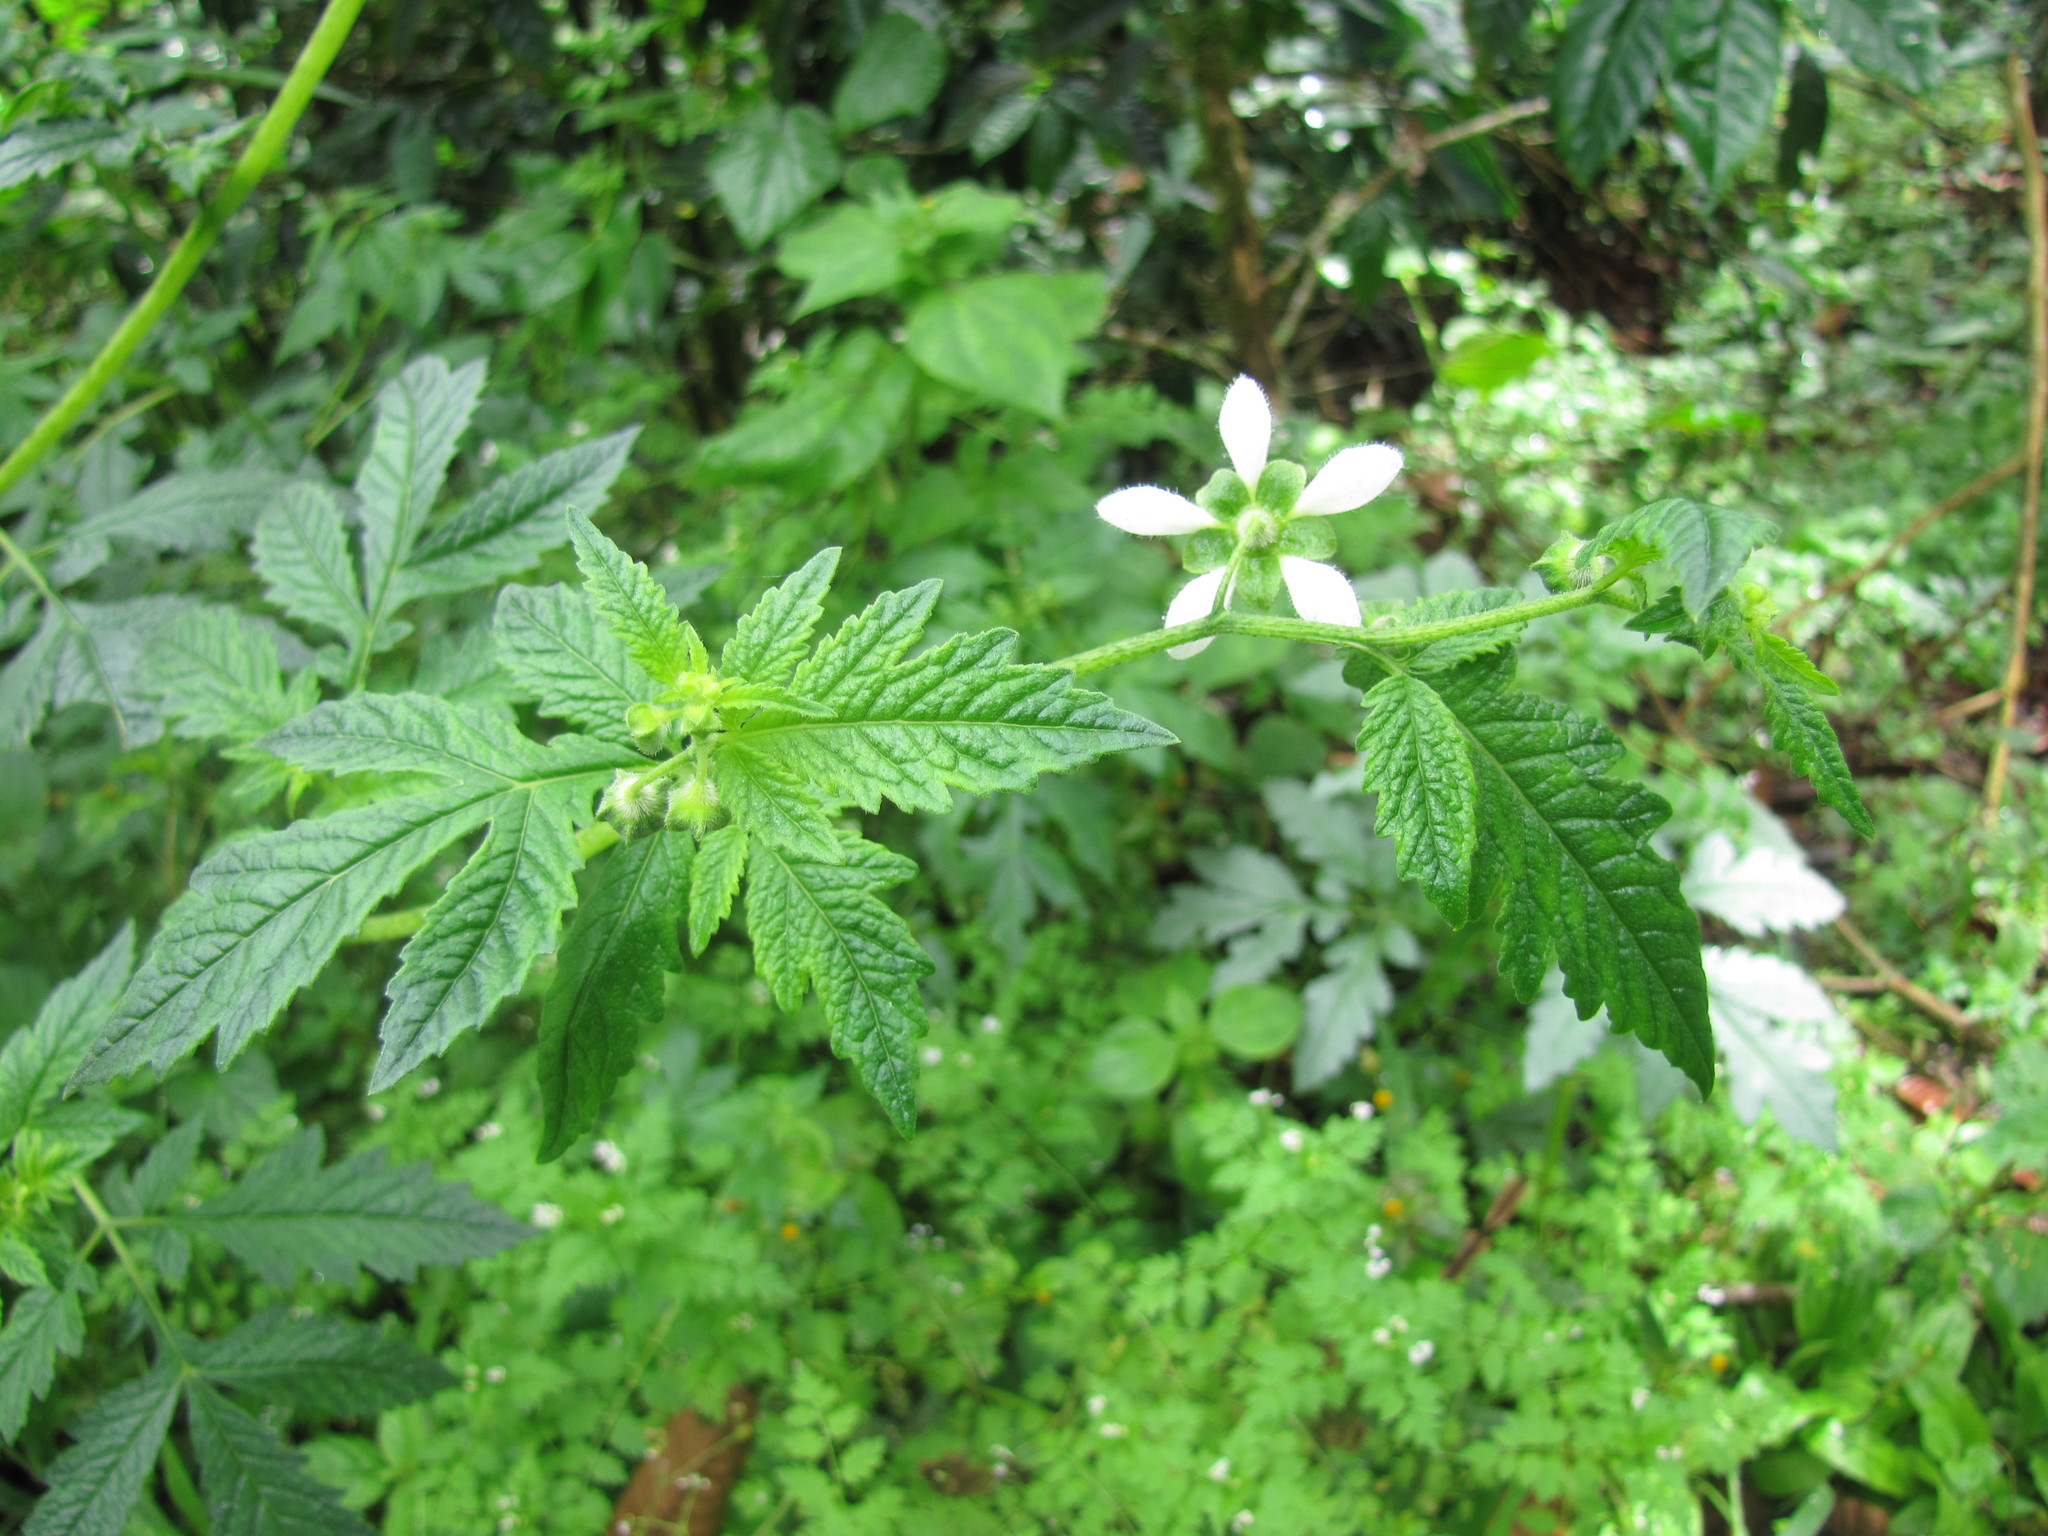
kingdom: Plantae
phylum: Tracheophyta
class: Magnoliopsida
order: Cornales
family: Loasaceae
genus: Nasa
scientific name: Nasa triphylla
